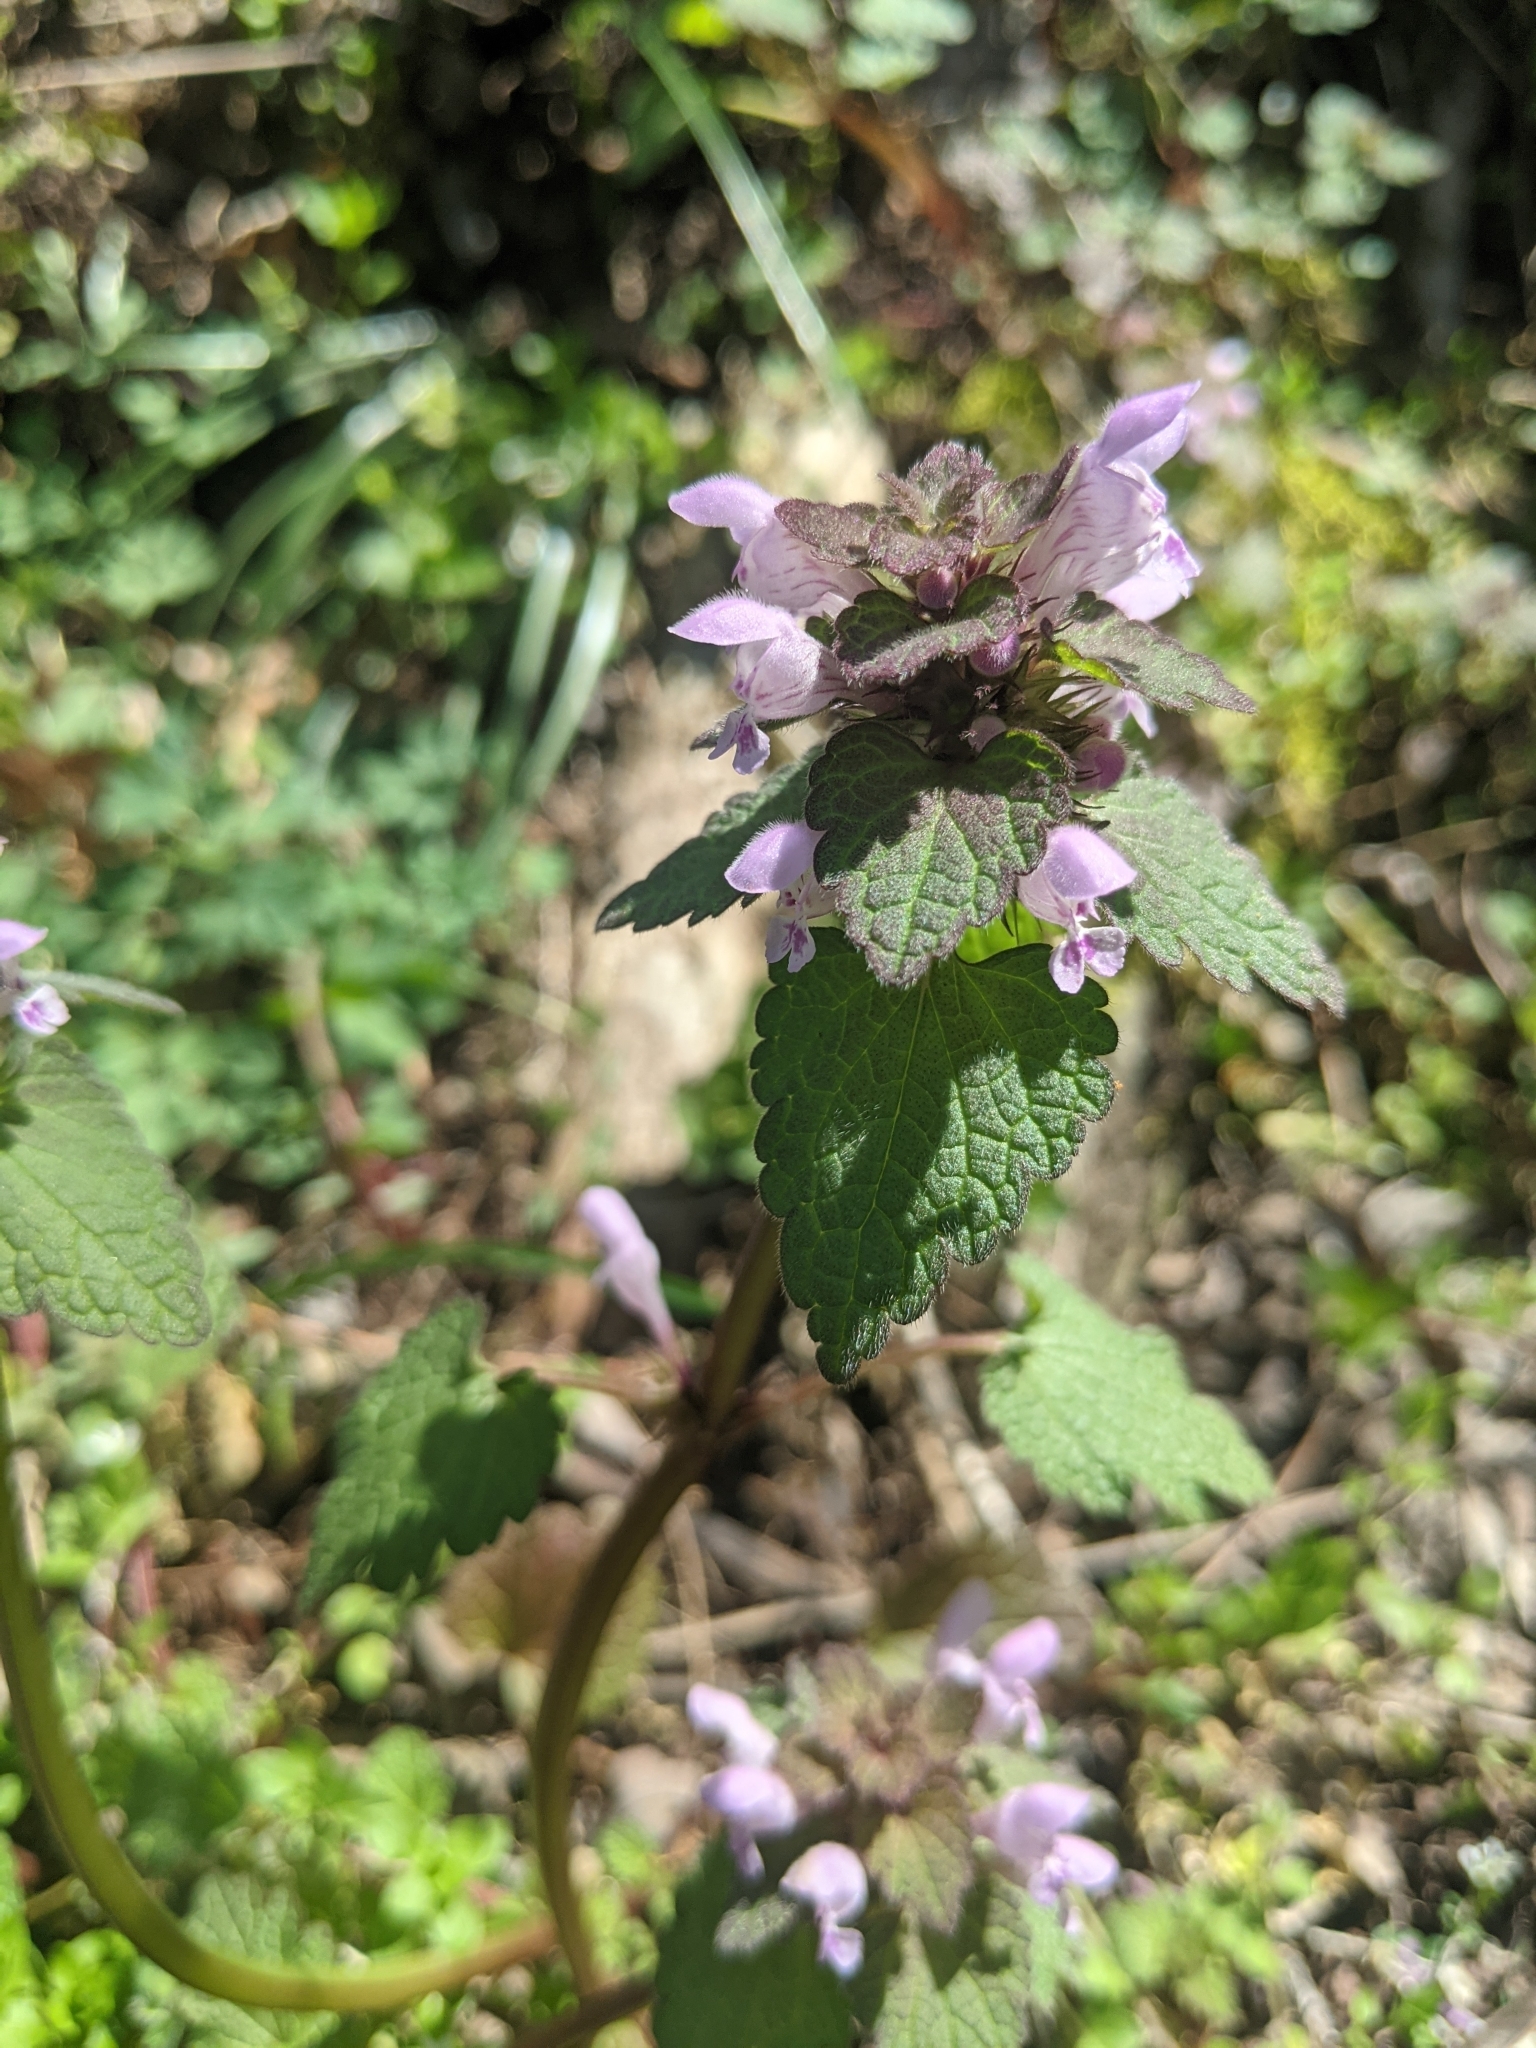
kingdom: Plantae
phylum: Tracheophyta
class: Magnoliopsida
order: Lamiales
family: Lamiaceae
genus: Lamium
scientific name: Lamium purpureum
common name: Red dead-nettle
